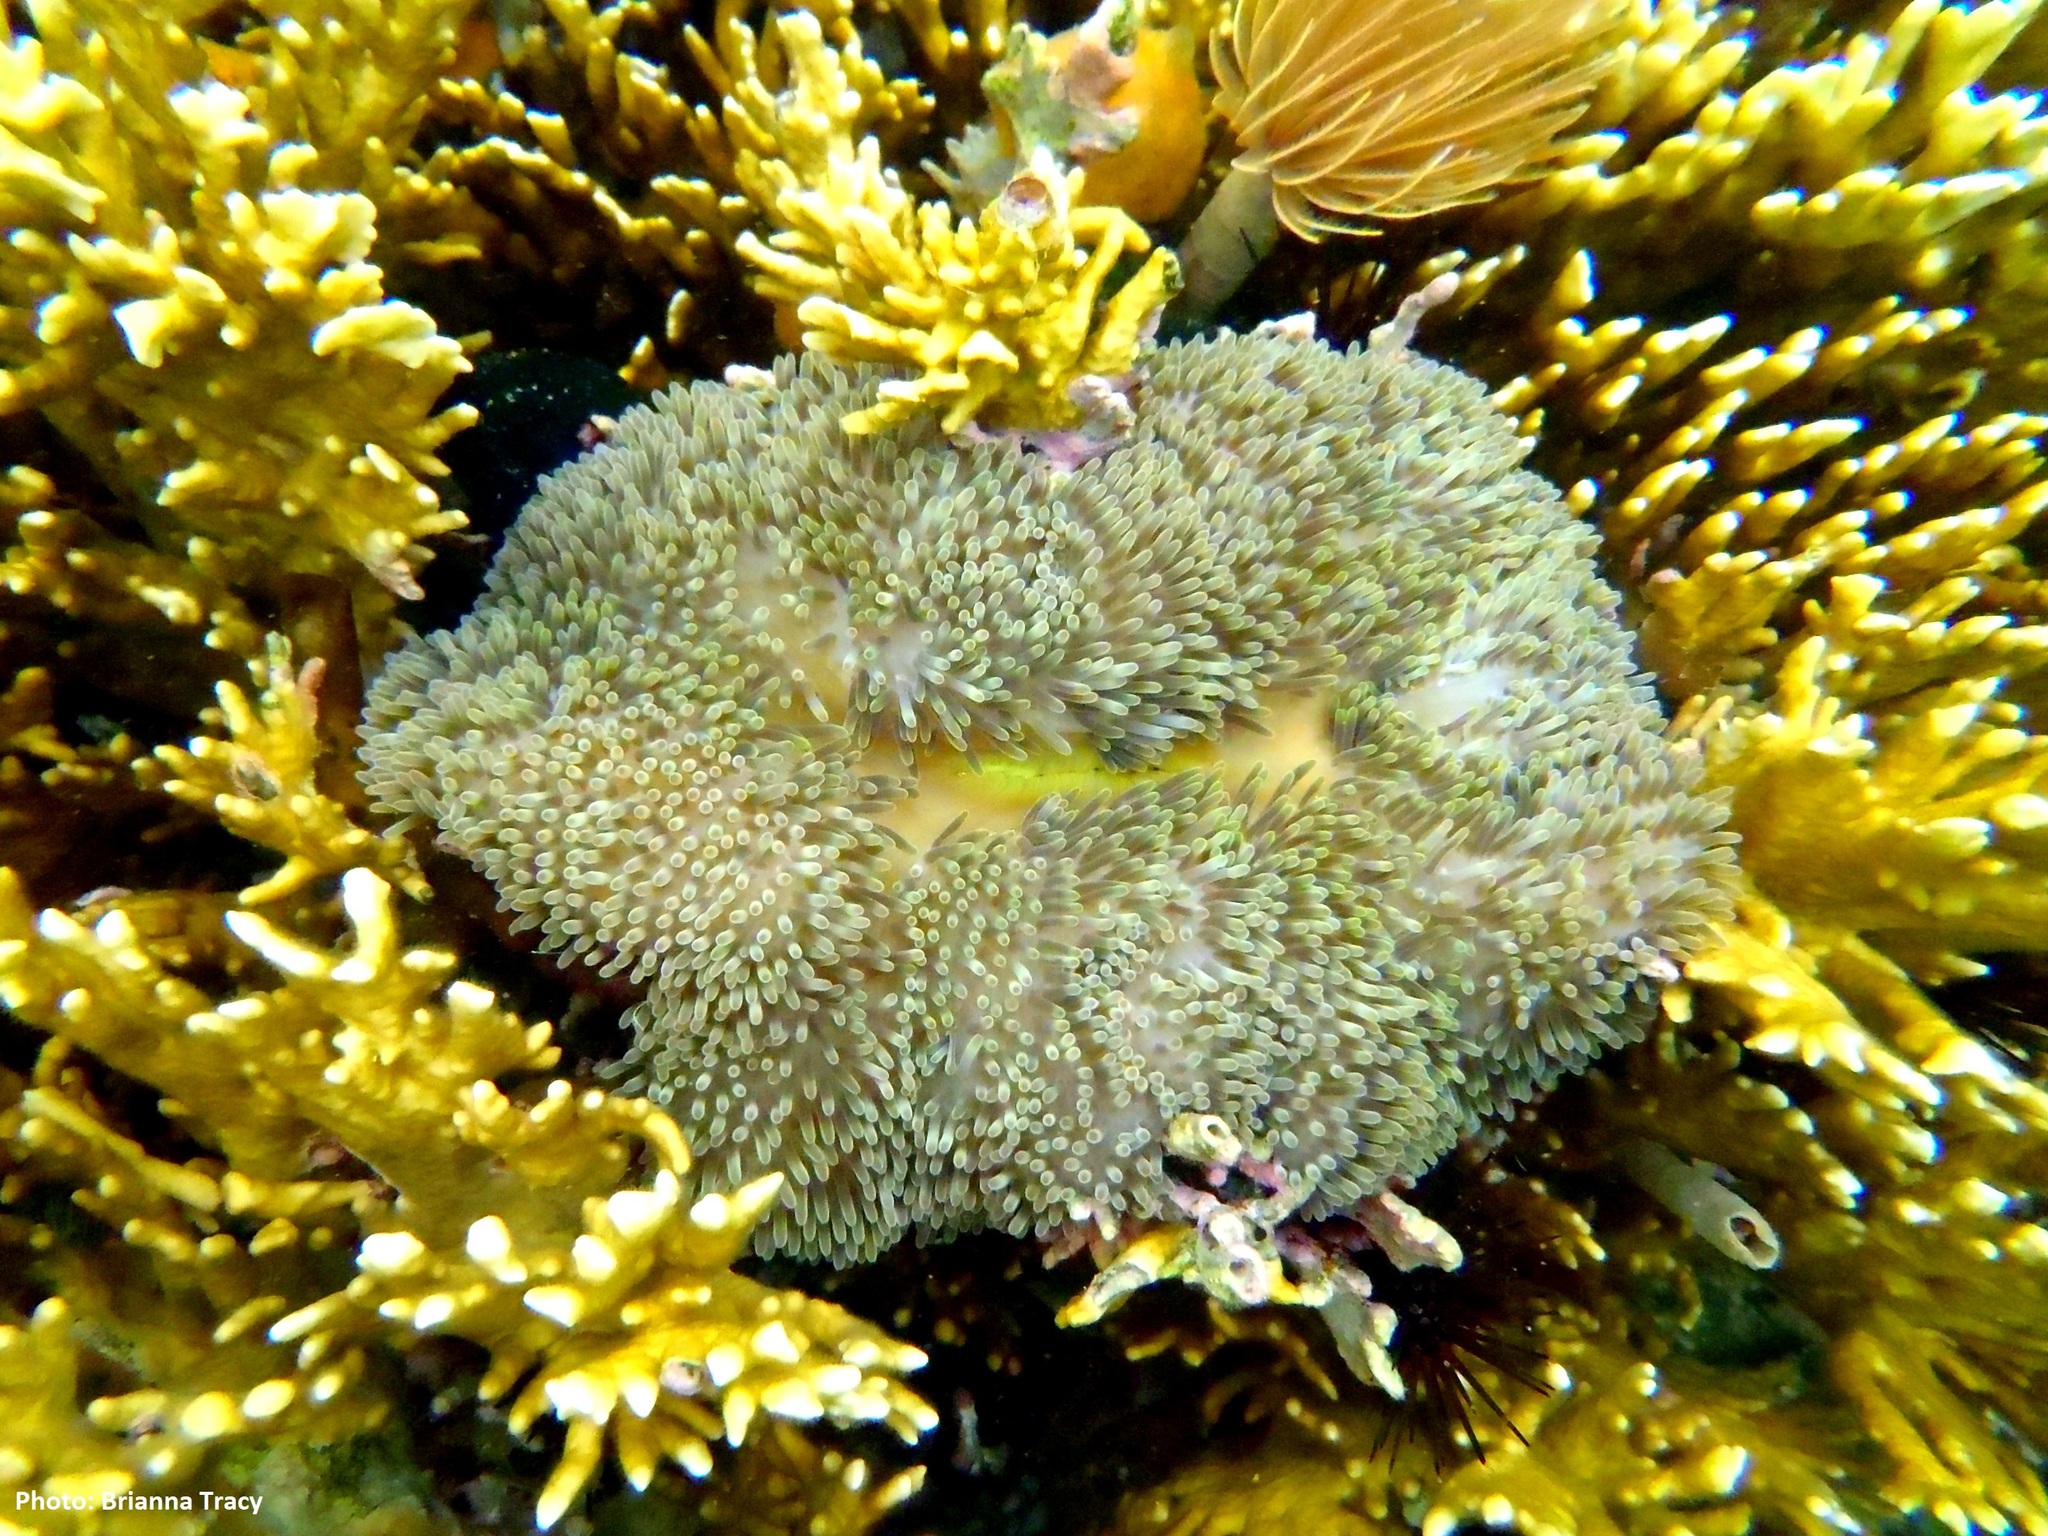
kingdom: Animalia
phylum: Cnidaria
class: Anthozoa
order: Actiniaria
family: Stichodactylidae
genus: Stichodactyla
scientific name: Stichodactyla helianthus
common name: Sun anemone
